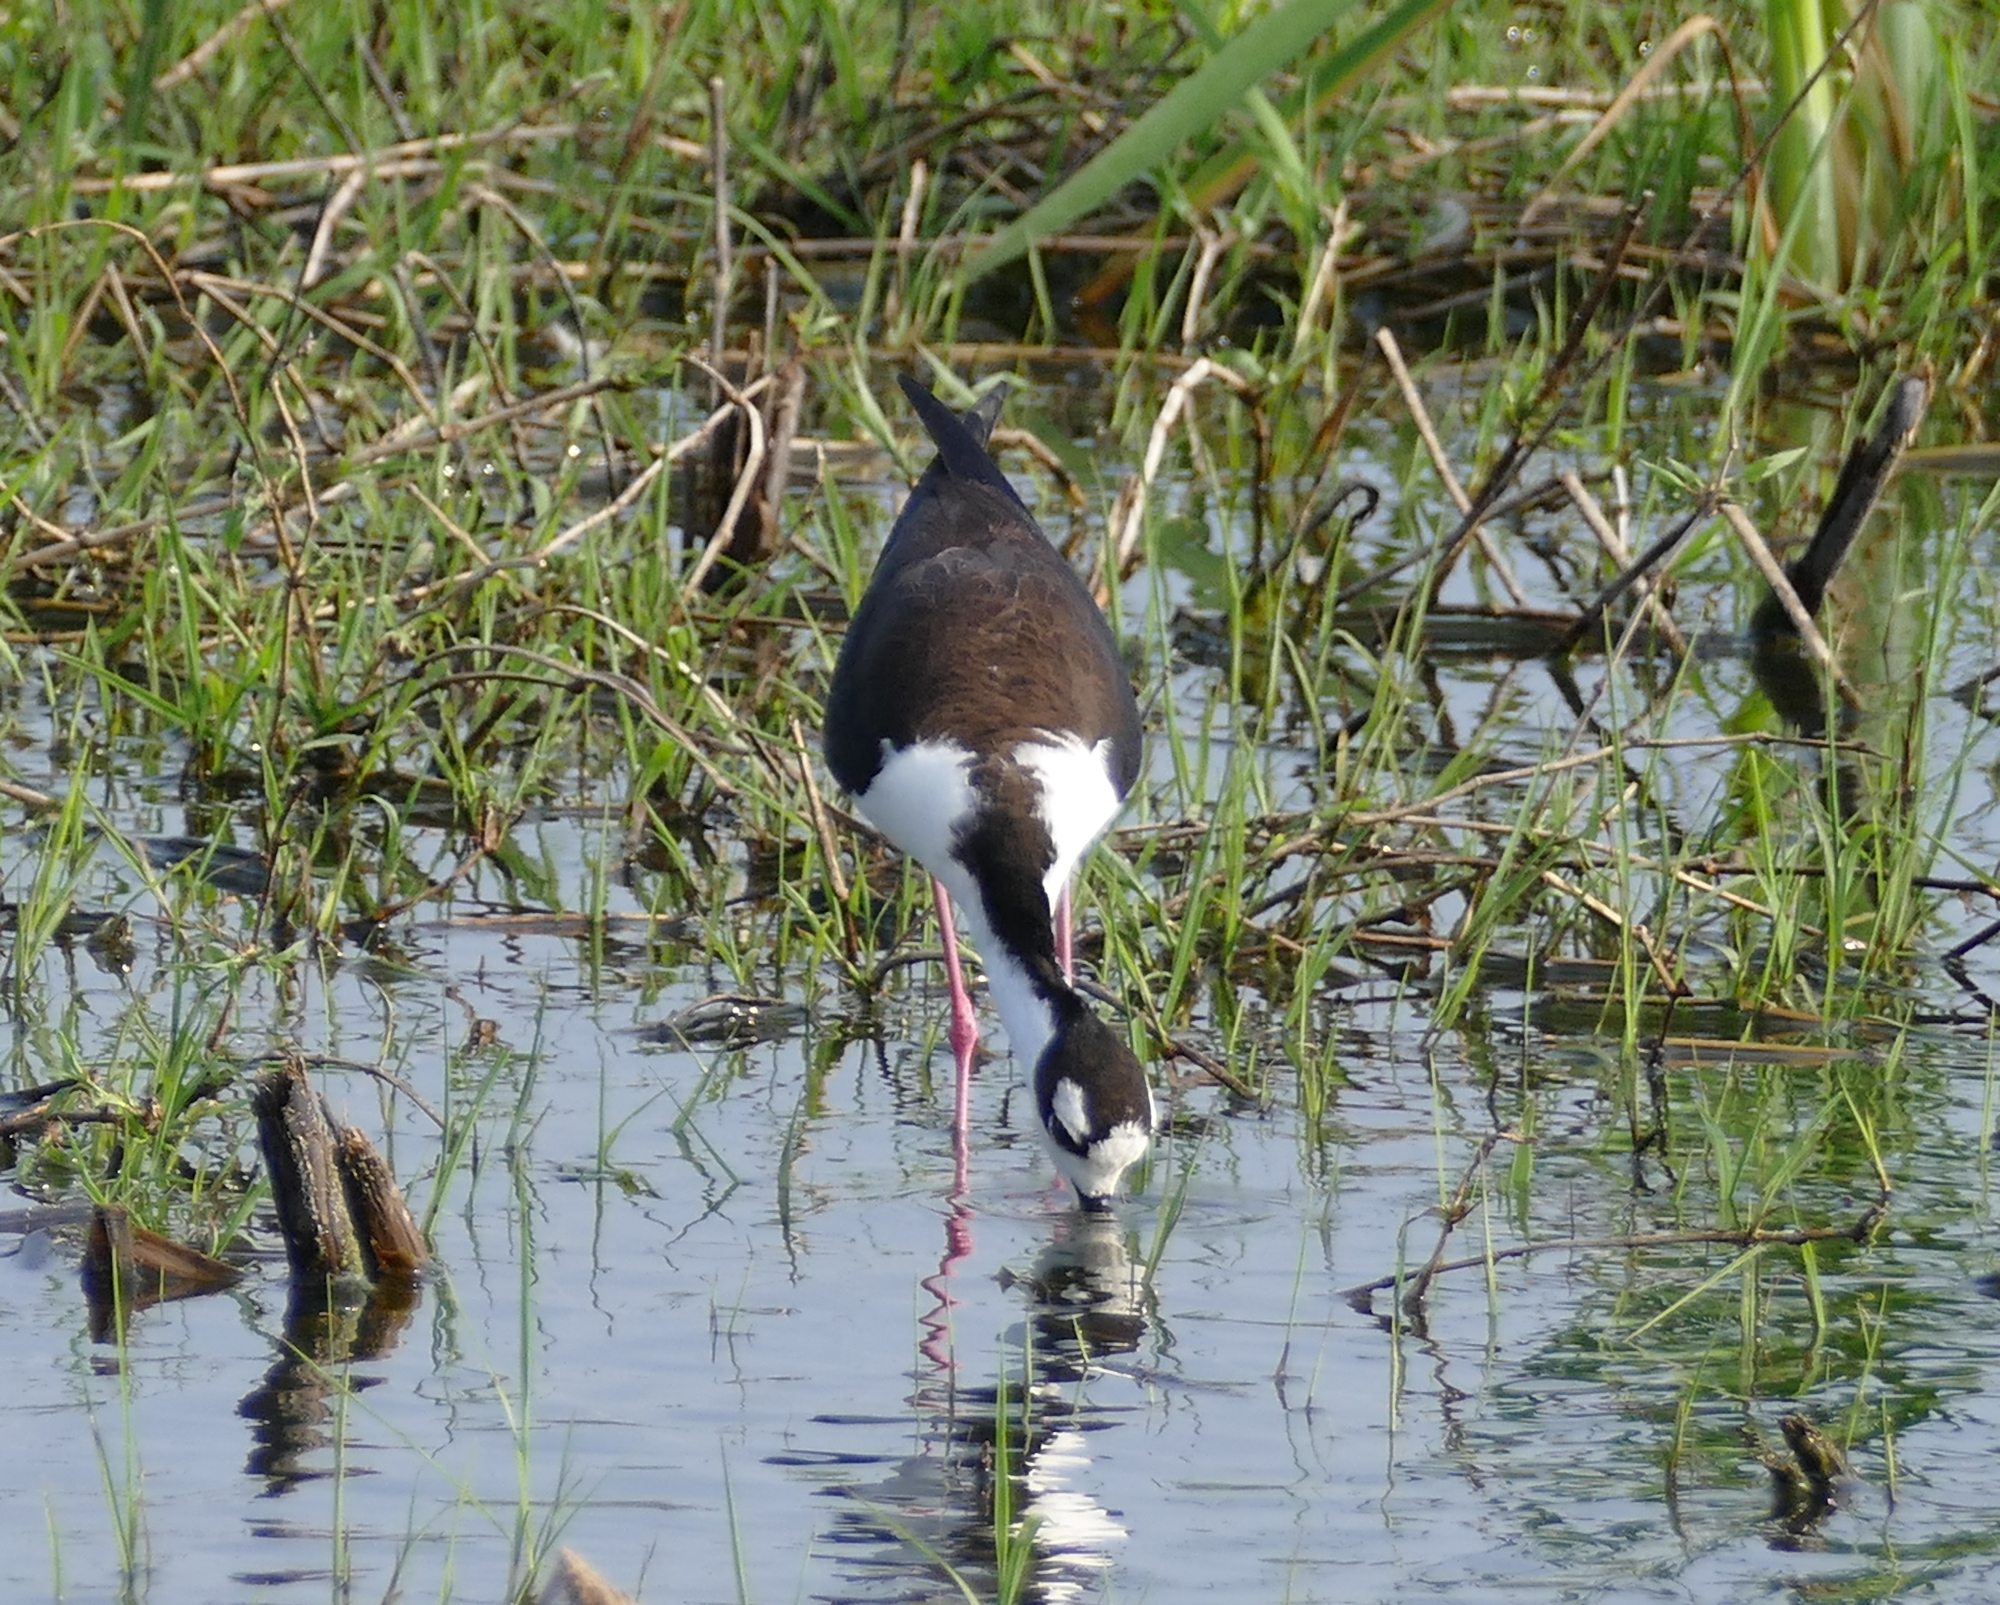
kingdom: Animalia
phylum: Chordata
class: Aves
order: Charadriiformes
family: Recurvirostridae
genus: Himantopus
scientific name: Himantopus mexicanus
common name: Black-necked stilt
